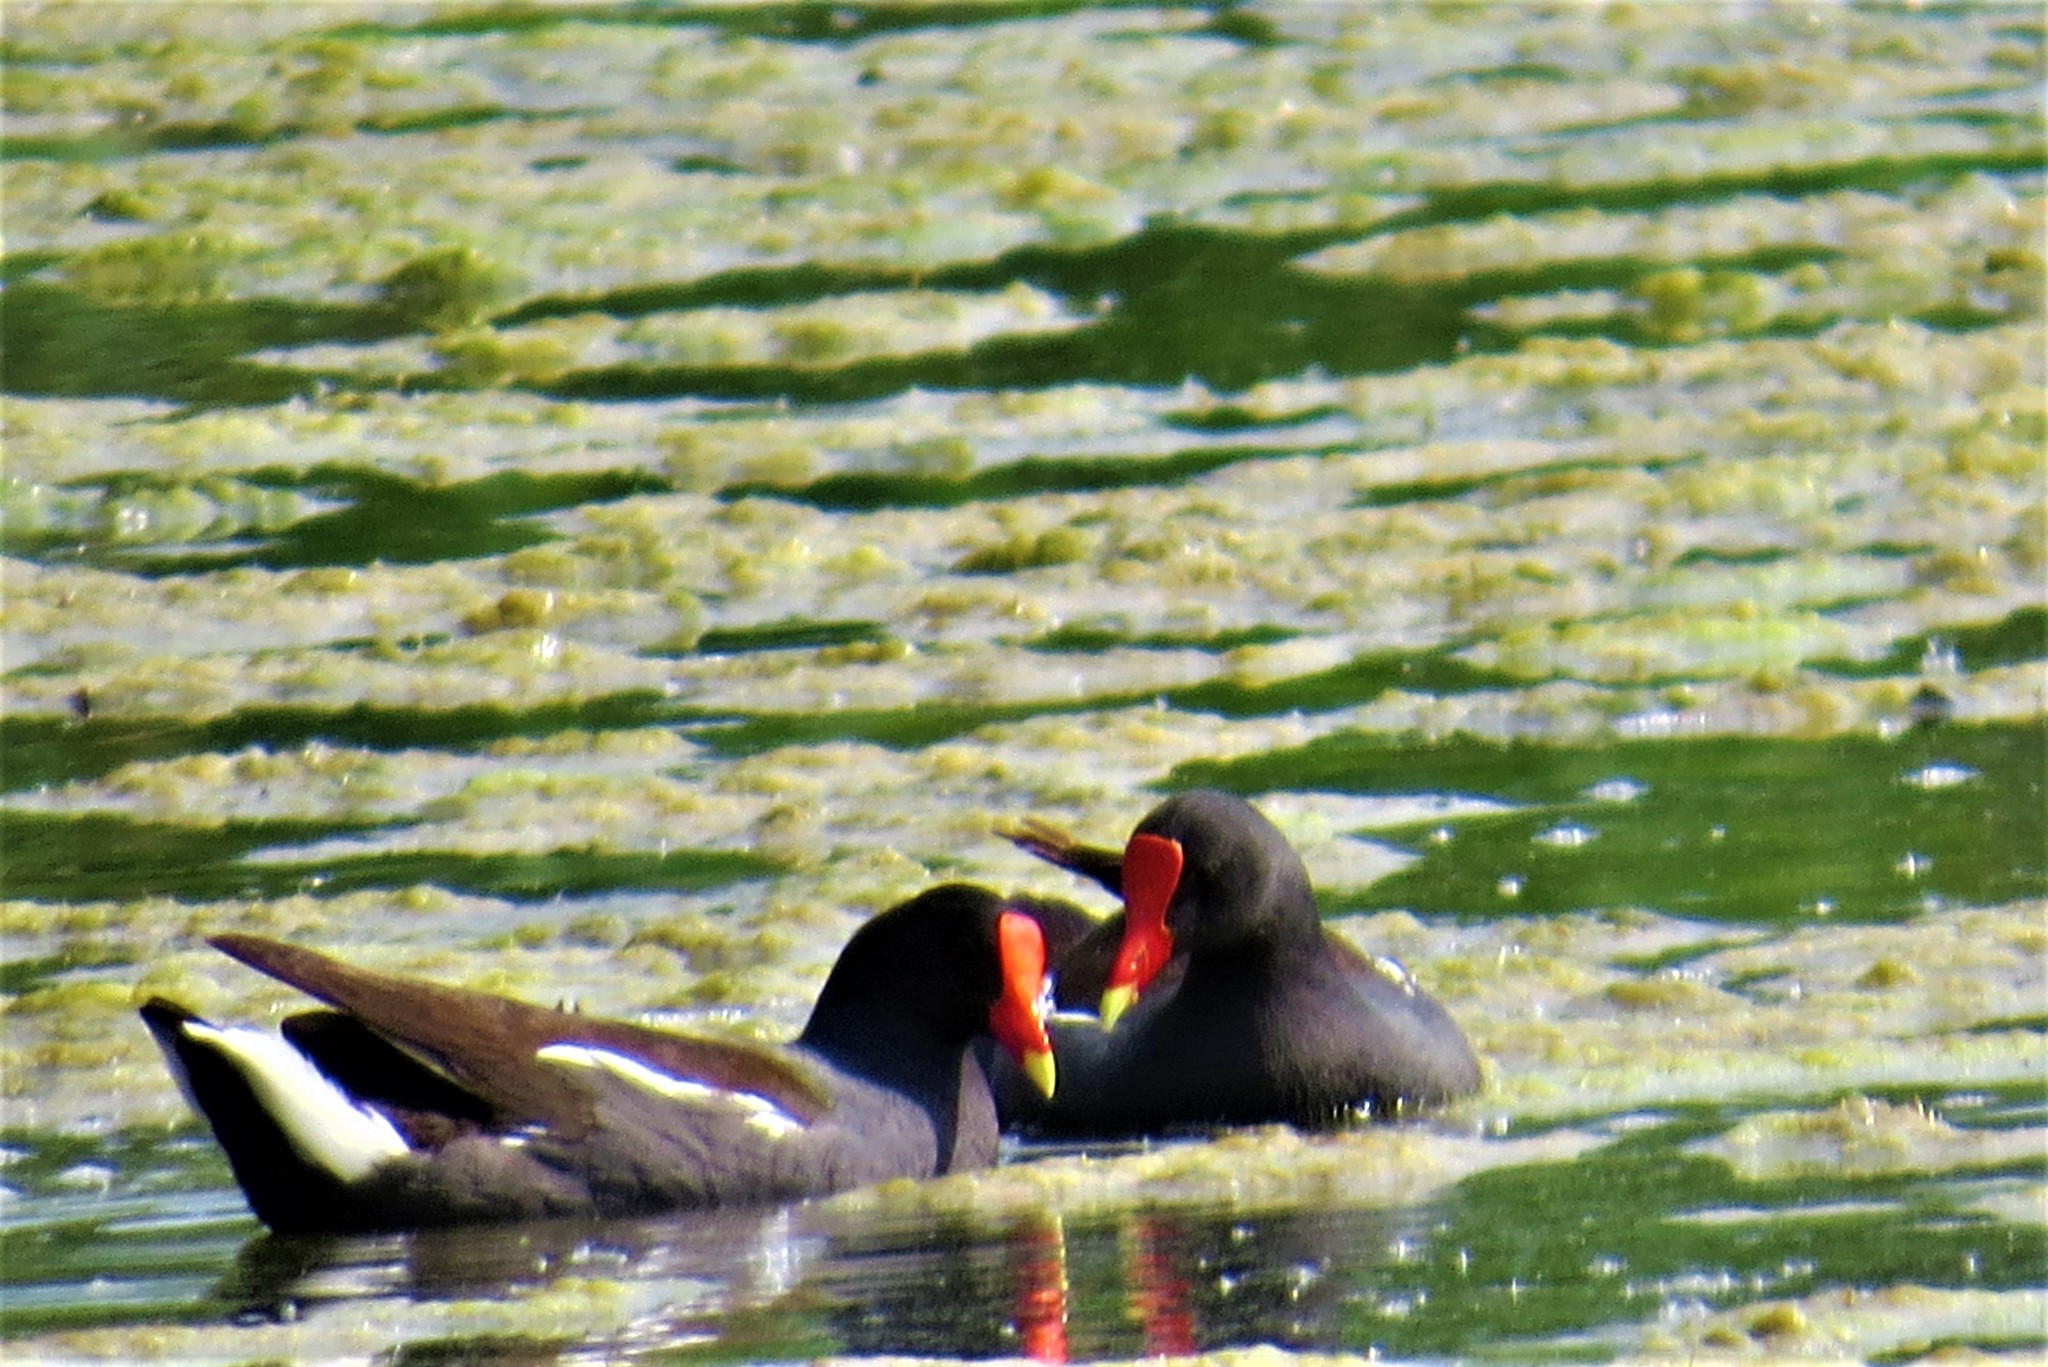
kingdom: Animalia
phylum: Chordata
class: Aves
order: Gruiformes
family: Rallidae
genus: Gallinula
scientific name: Gallinula chloropus
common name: Common moorhen
